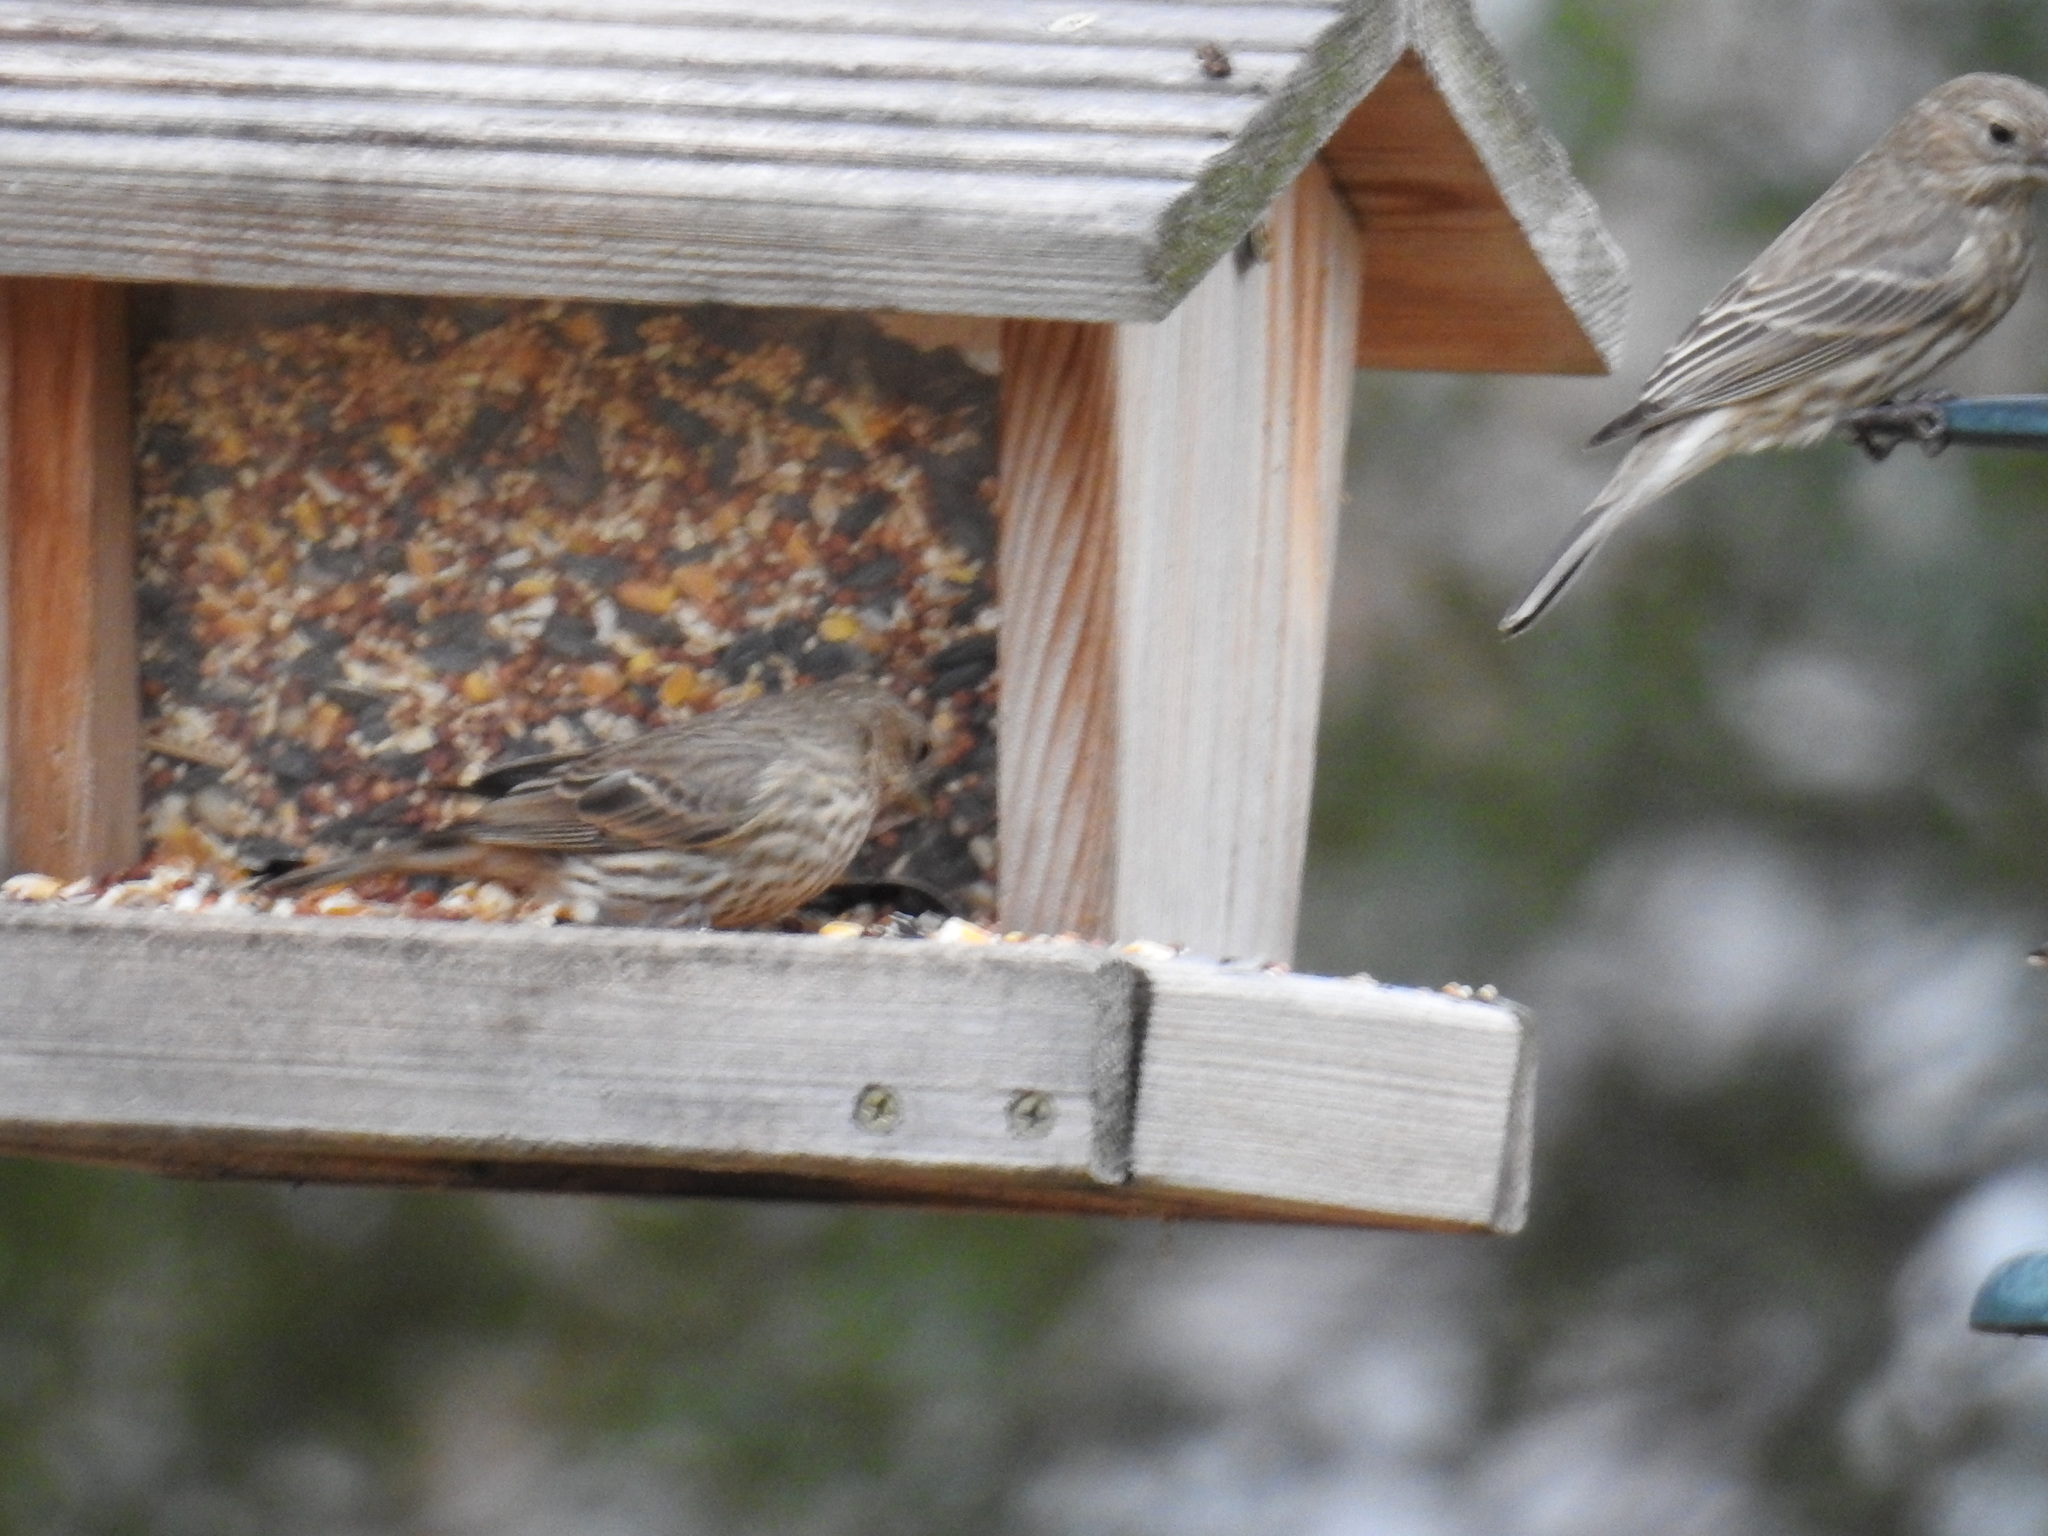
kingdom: Animalia
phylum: Chordata
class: Aves
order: Passeriformes
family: Fringillidae
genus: Haemorhous
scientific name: Haemorhous mexicanus
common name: House finch
